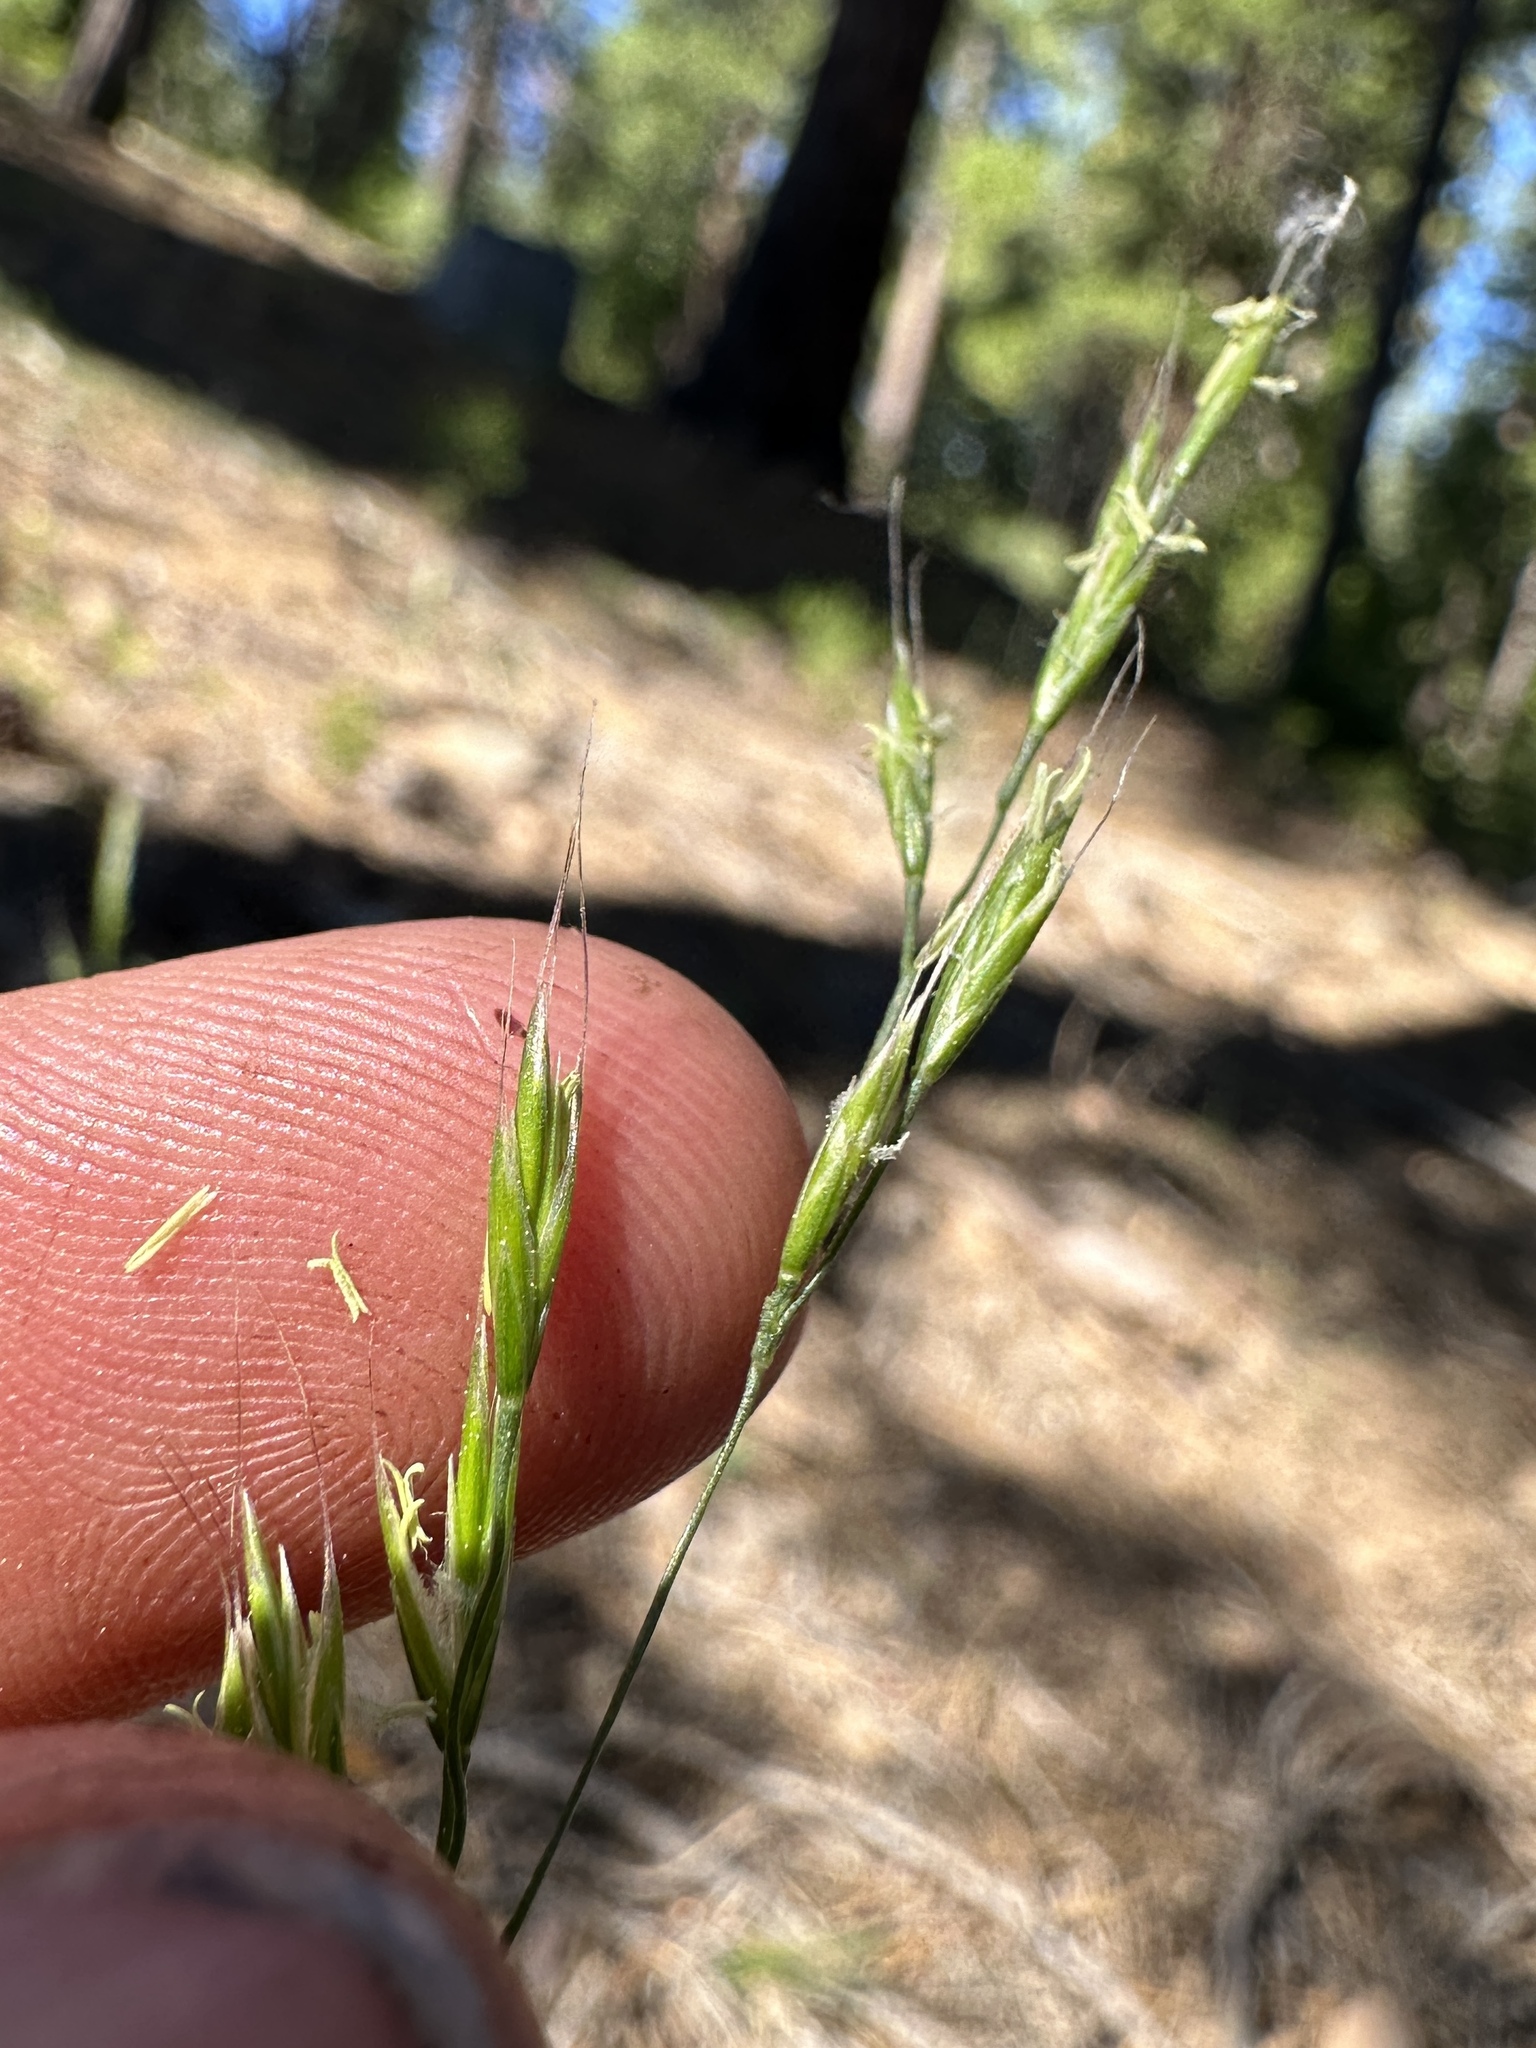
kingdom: Plantae
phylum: Tracheophyta
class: Liliopsida
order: Poales
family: Poaceae
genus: Festuca
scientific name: Festuca occidentalis
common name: Western fescue
